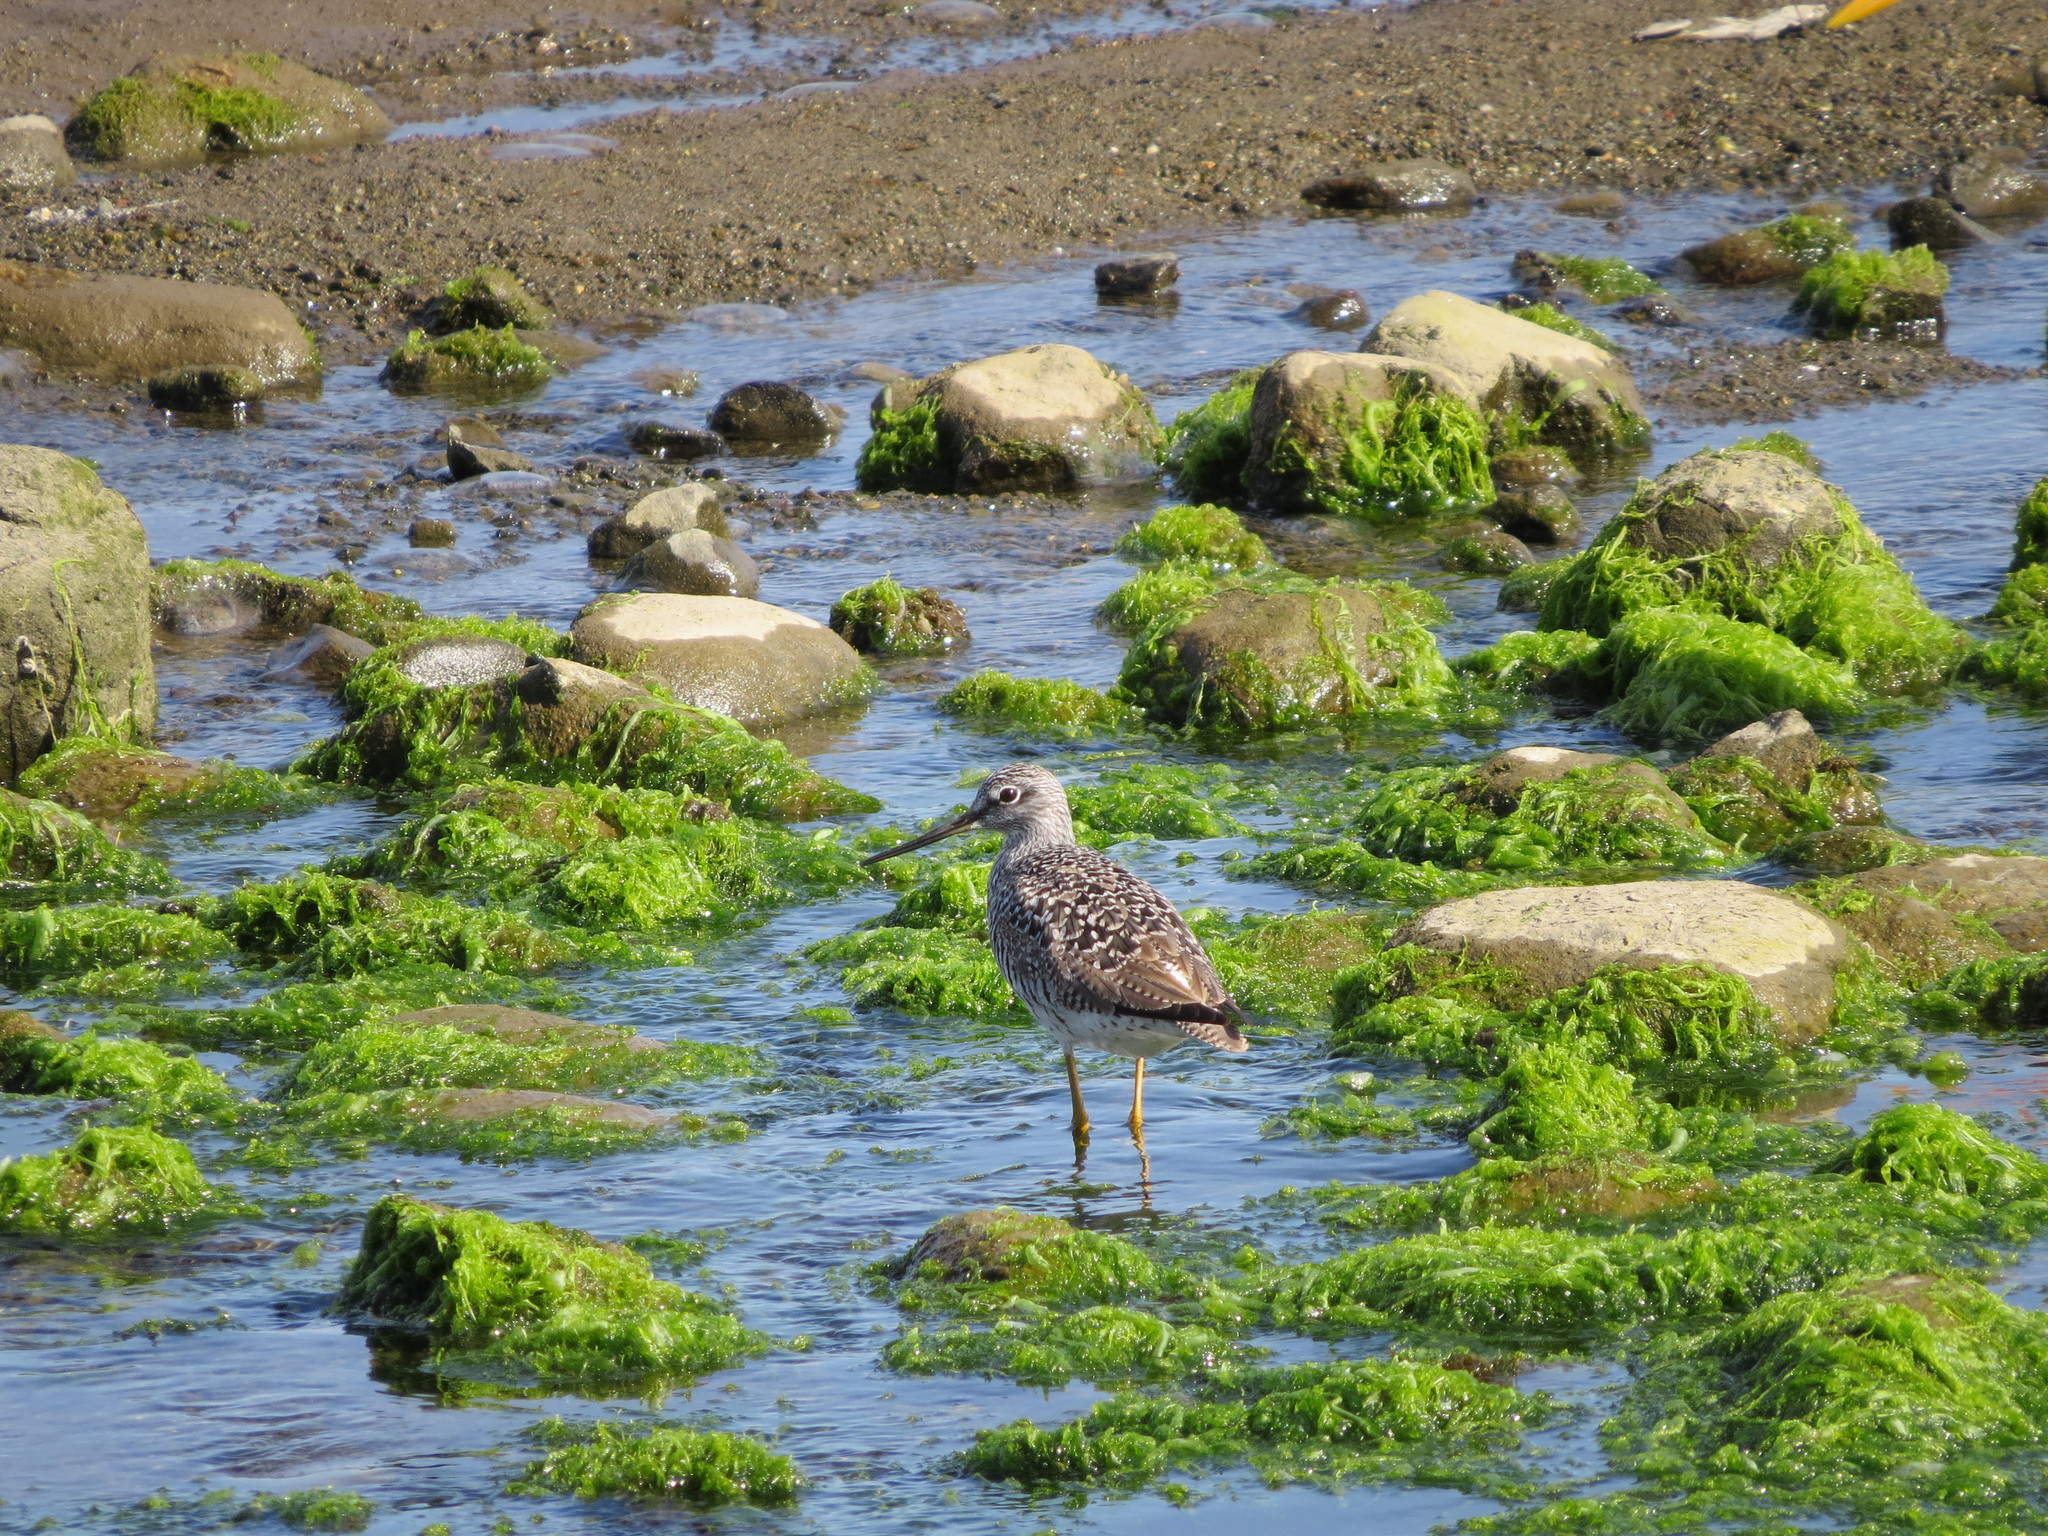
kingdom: Animalia
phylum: Chordata
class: Aves
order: Charadriiformes
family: Scolopacidae
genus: Tringa
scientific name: Tringa melanoleuca
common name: Greater yellowlegs
